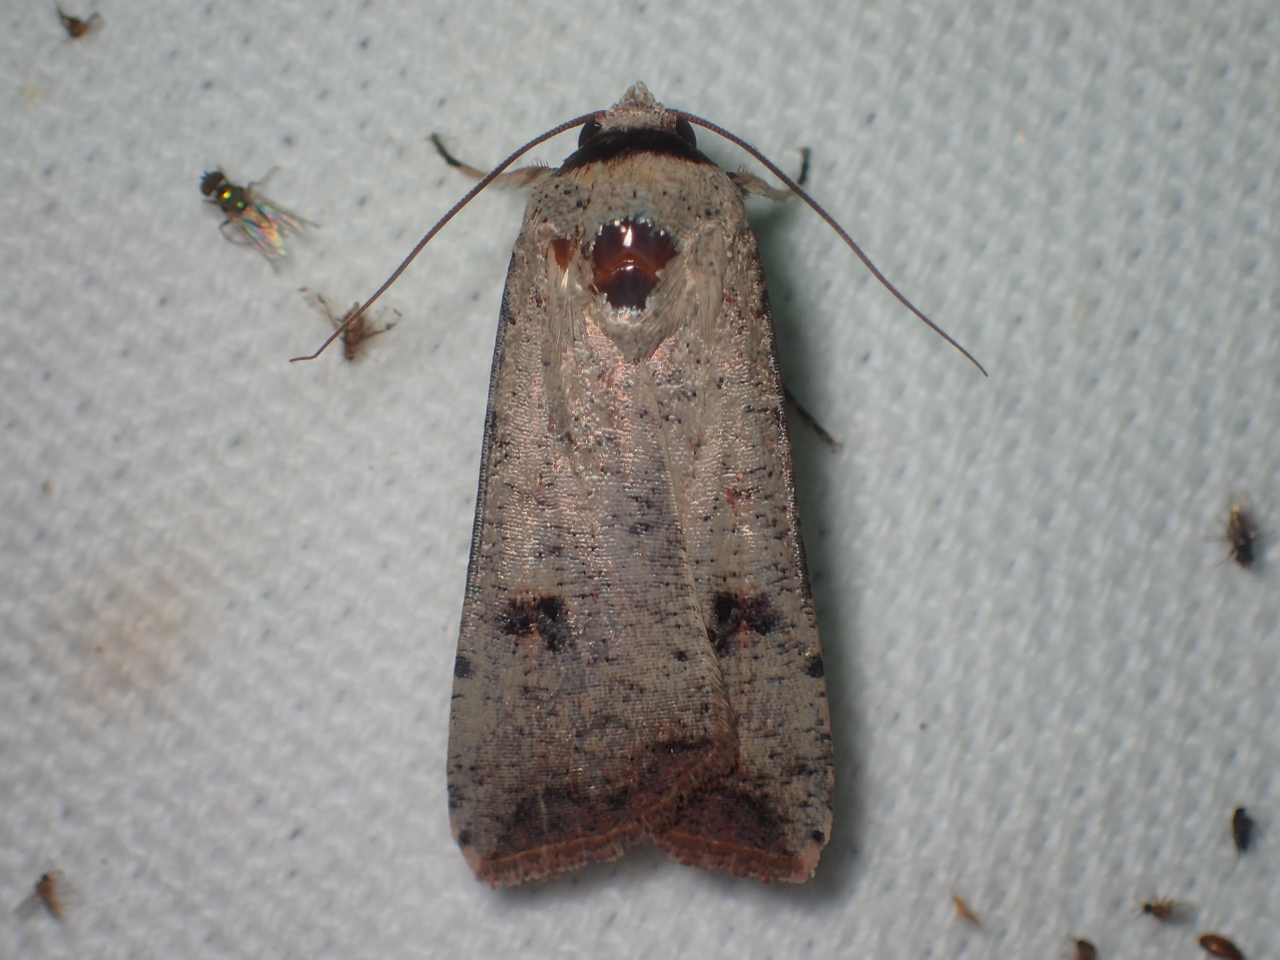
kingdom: Animalia
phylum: Arthropoda
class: Insecta
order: Lepidoptera
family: Noctuidae
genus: Anicla
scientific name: Anicla infecta
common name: Green cutworm
